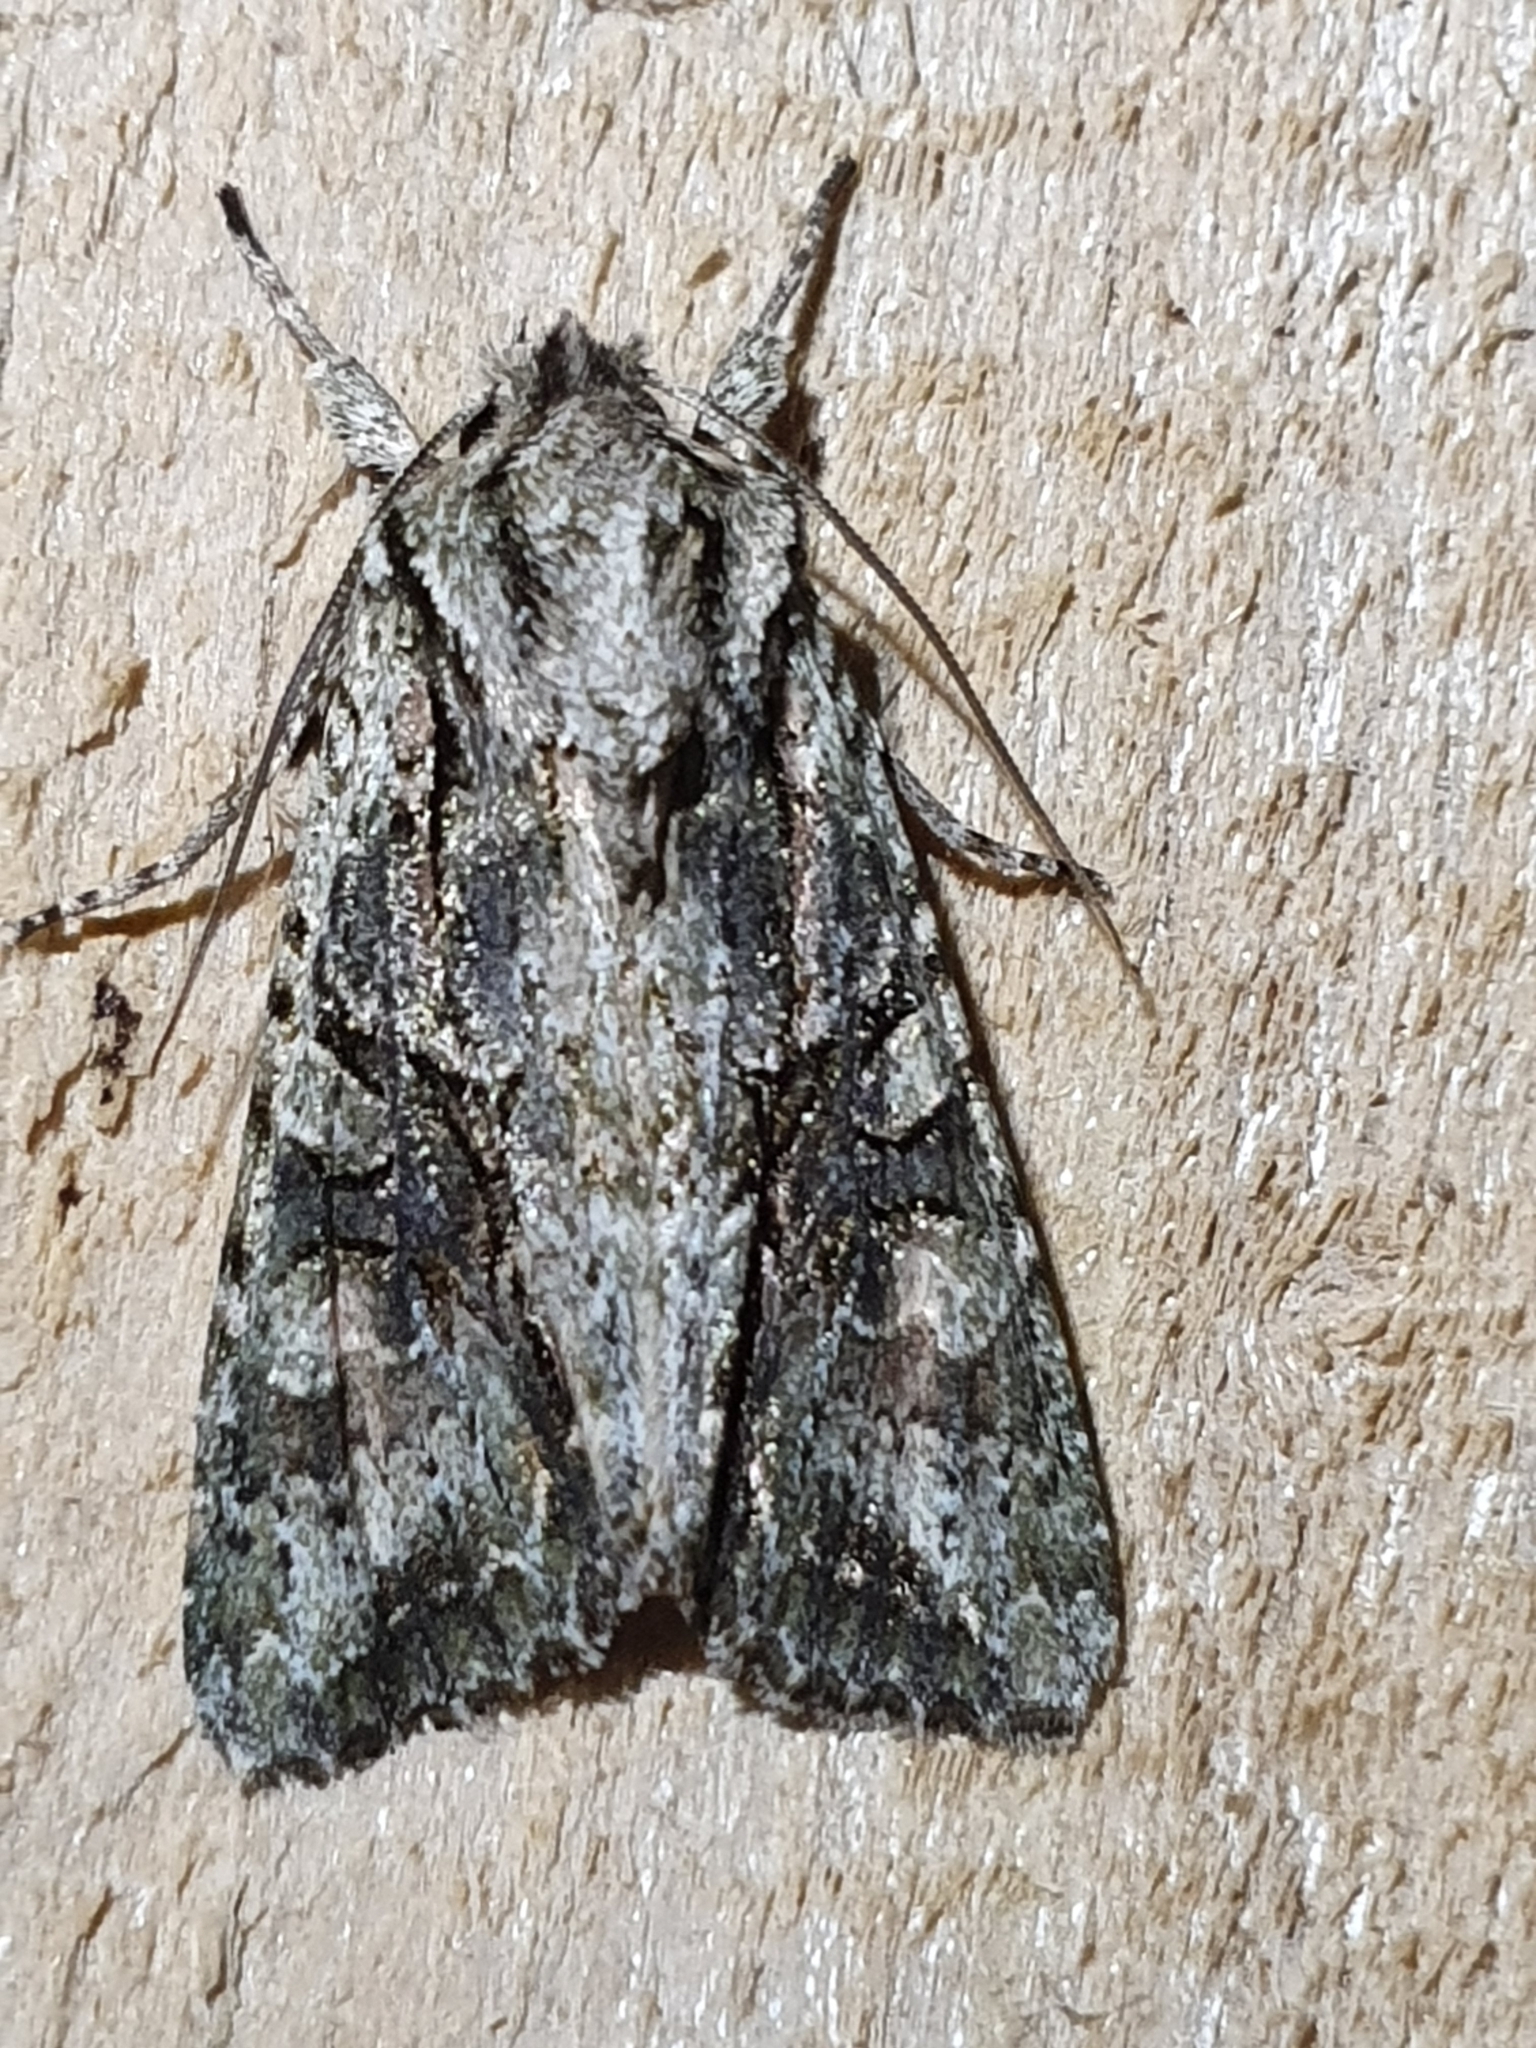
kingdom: Animalia
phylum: Arthropoda
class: Insecta
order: Lepidoptera
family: Noctuidae
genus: Ichneutica
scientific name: Ichneutica mutans
